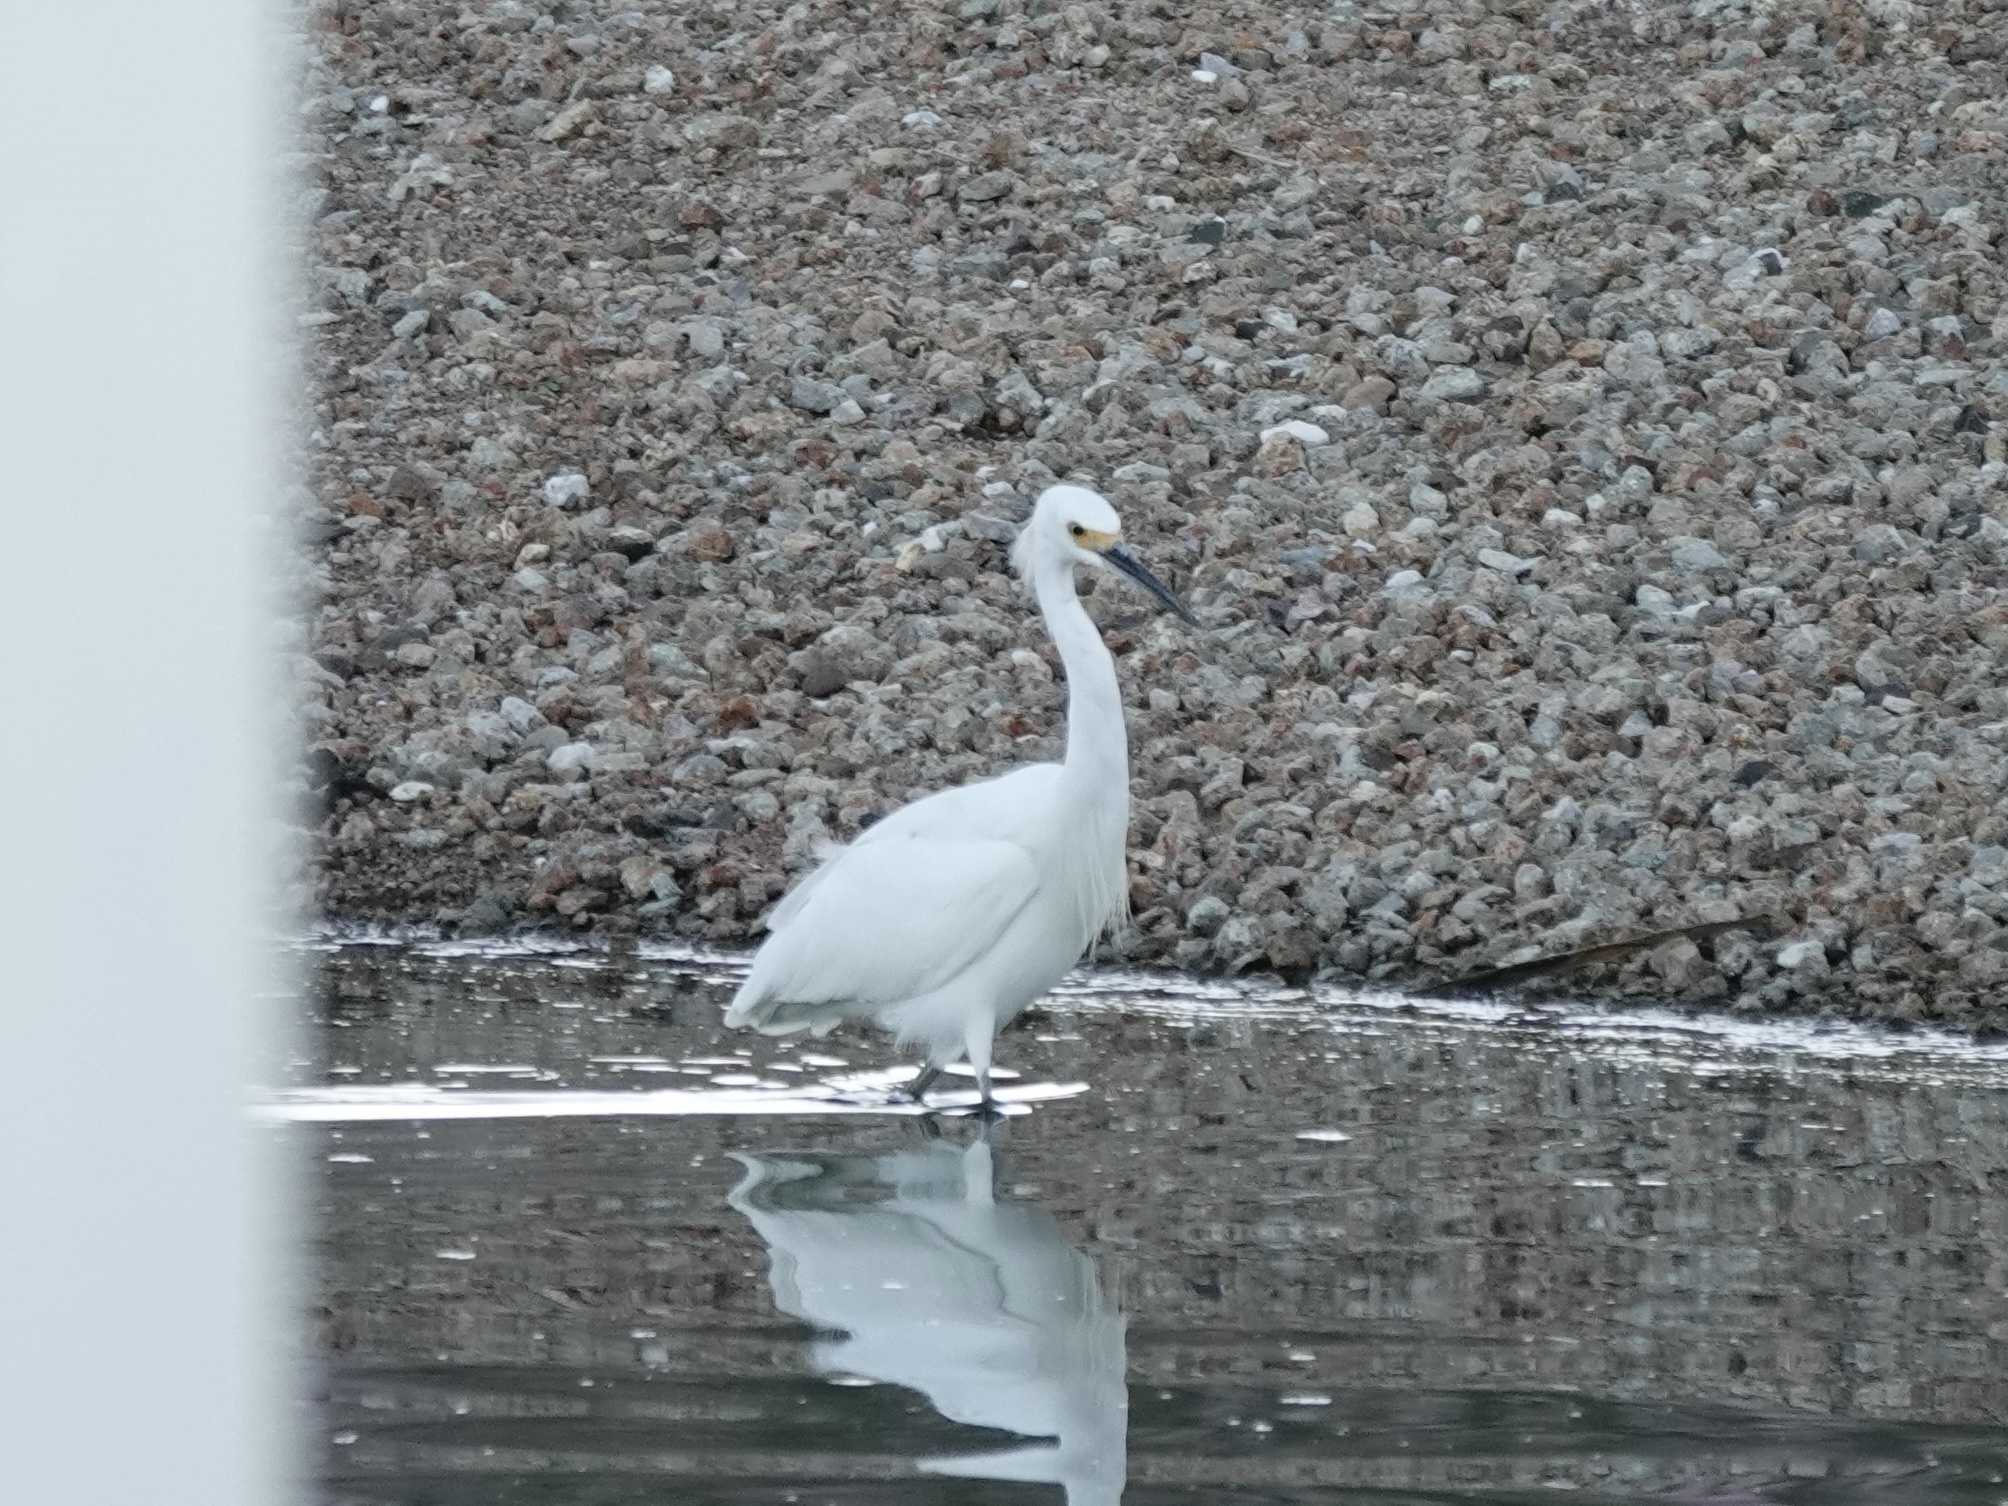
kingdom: Animalia
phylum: Chordata
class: Aves
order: Pelecaniformes
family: Ardeidae
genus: Egretta
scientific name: Egretta thula
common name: Snowy egret
